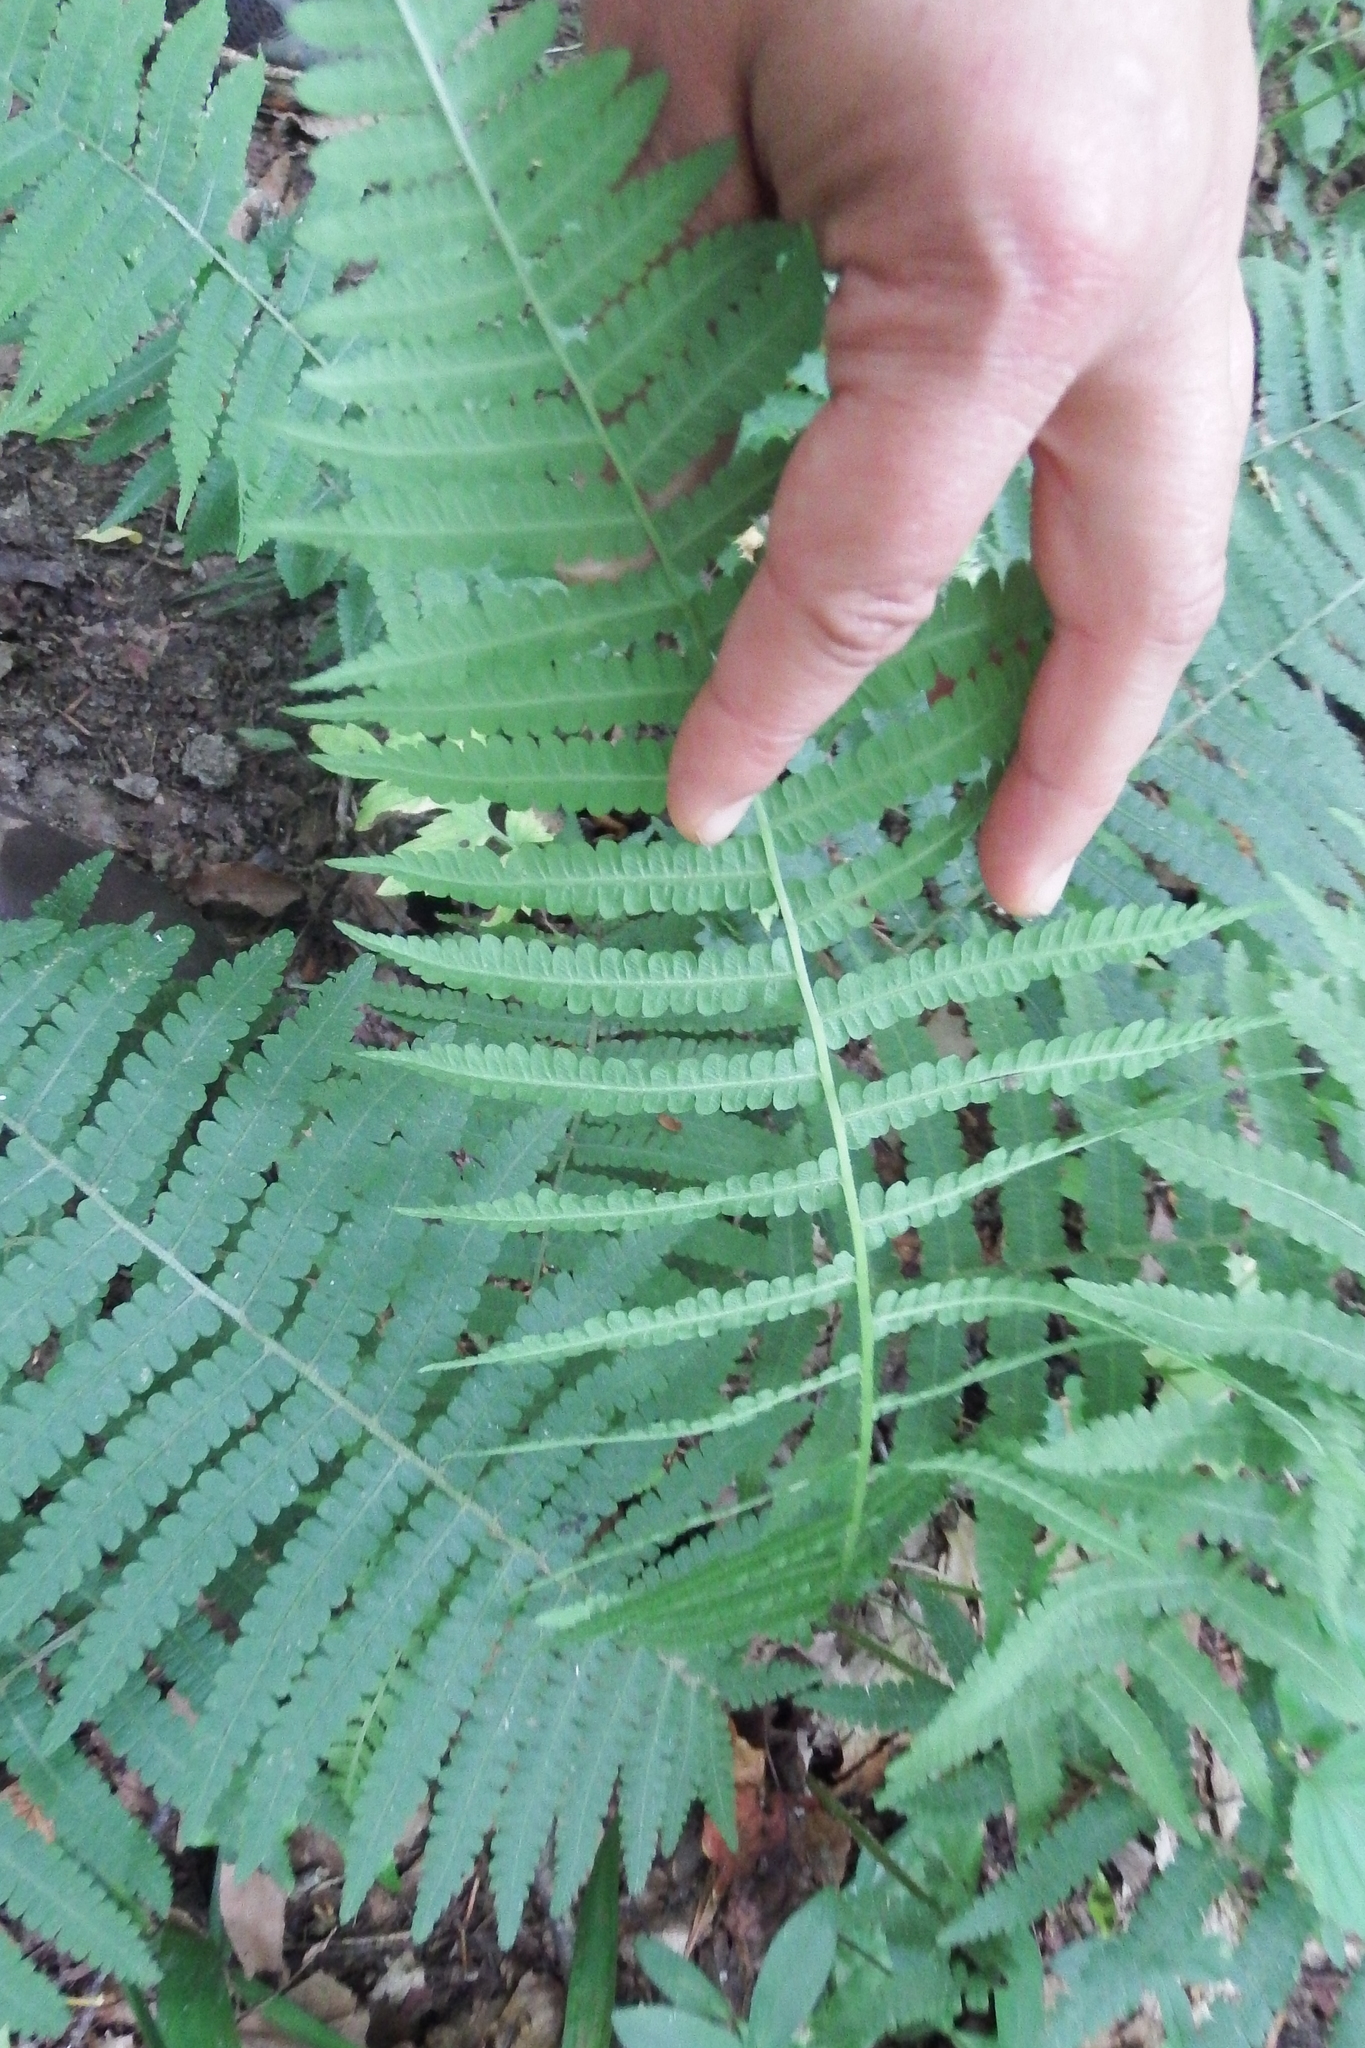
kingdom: Plantae
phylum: Tracheophyta
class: Polypodiopsida
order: Polypodiales
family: Athyriaceae
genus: Deparia
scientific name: Deparia acrostichoides
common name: Silver false spleenwort
